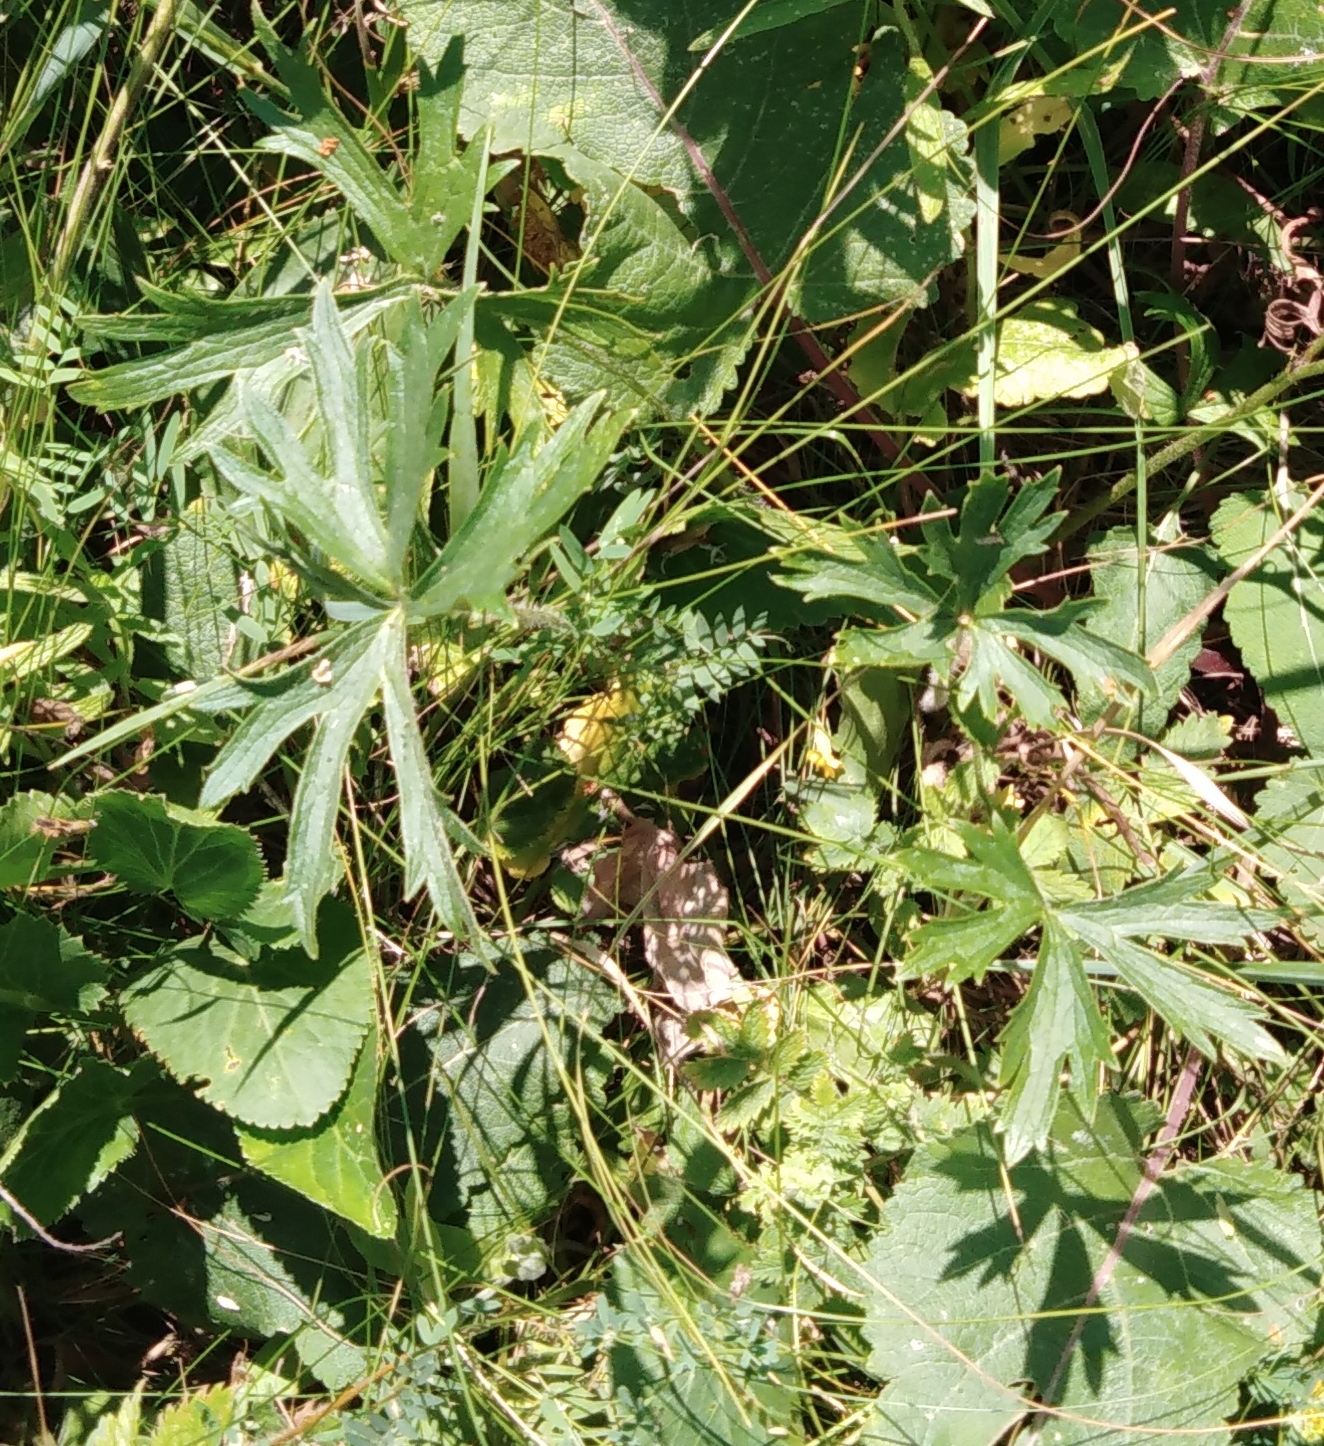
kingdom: Plantae
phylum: Tracheophyta
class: Magnoliopsida
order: Ranunculales
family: Ranunculaceae
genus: Ranunculus
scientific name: Ranunculus polyanthemos
